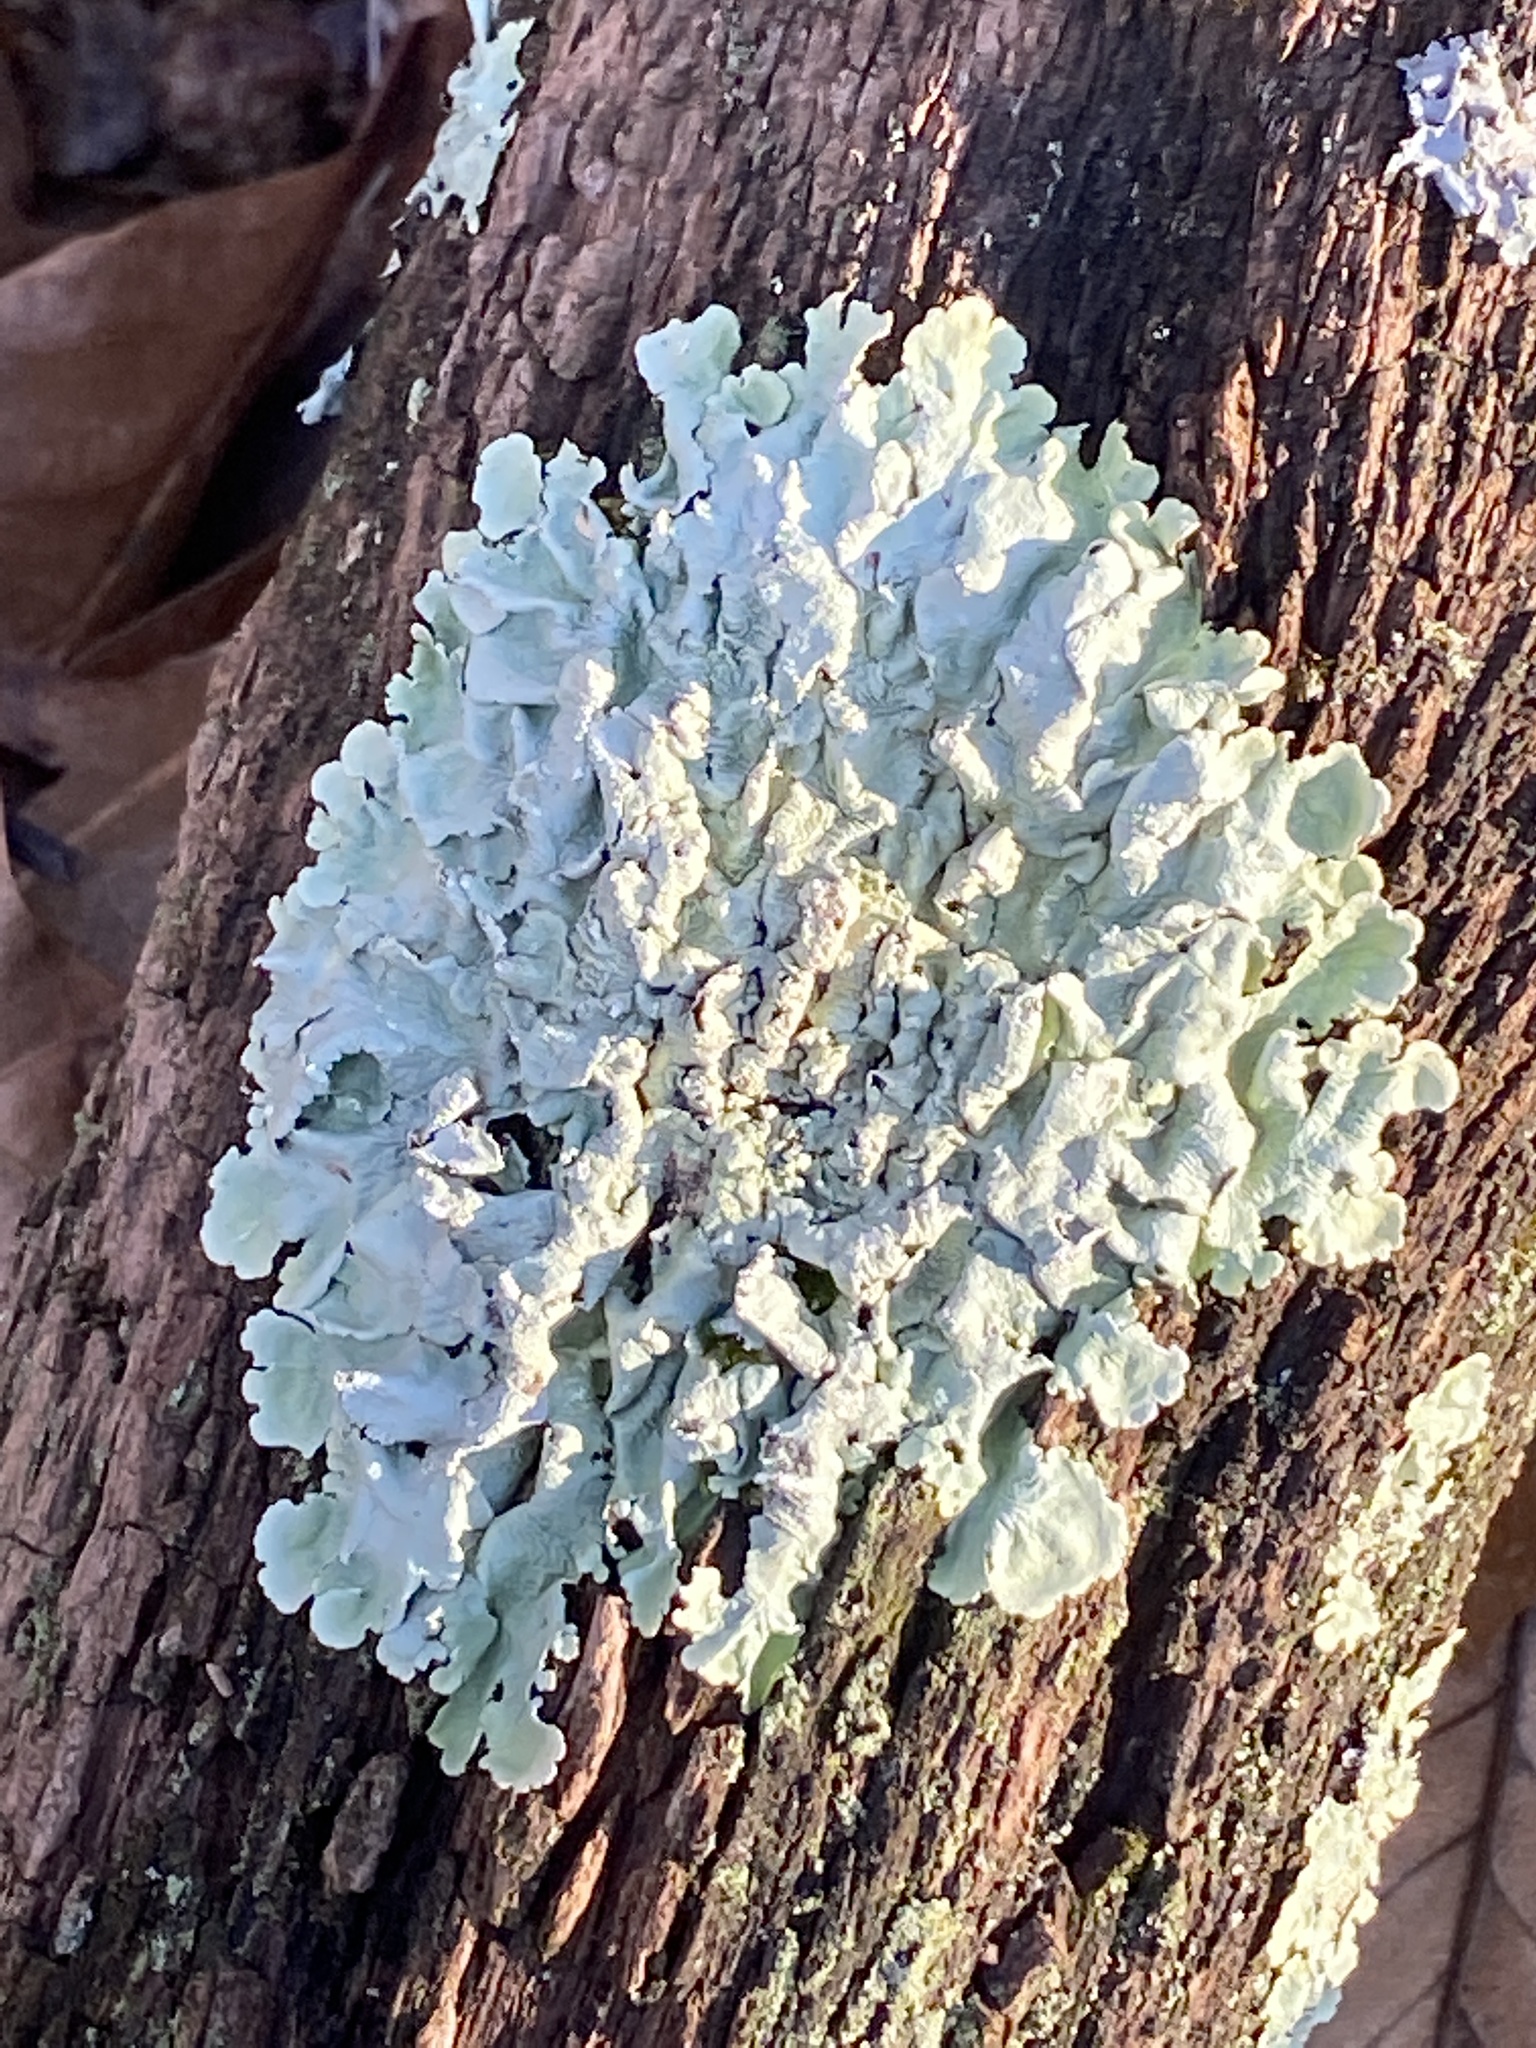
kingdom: Fungi
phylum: Ascomycota
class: Lecanoromycetes
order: Lecanorales
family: Parmeliaceae
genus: Flavoparmelia
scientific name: Flavoparmelia caperata
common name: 40-mile per hour lichen
